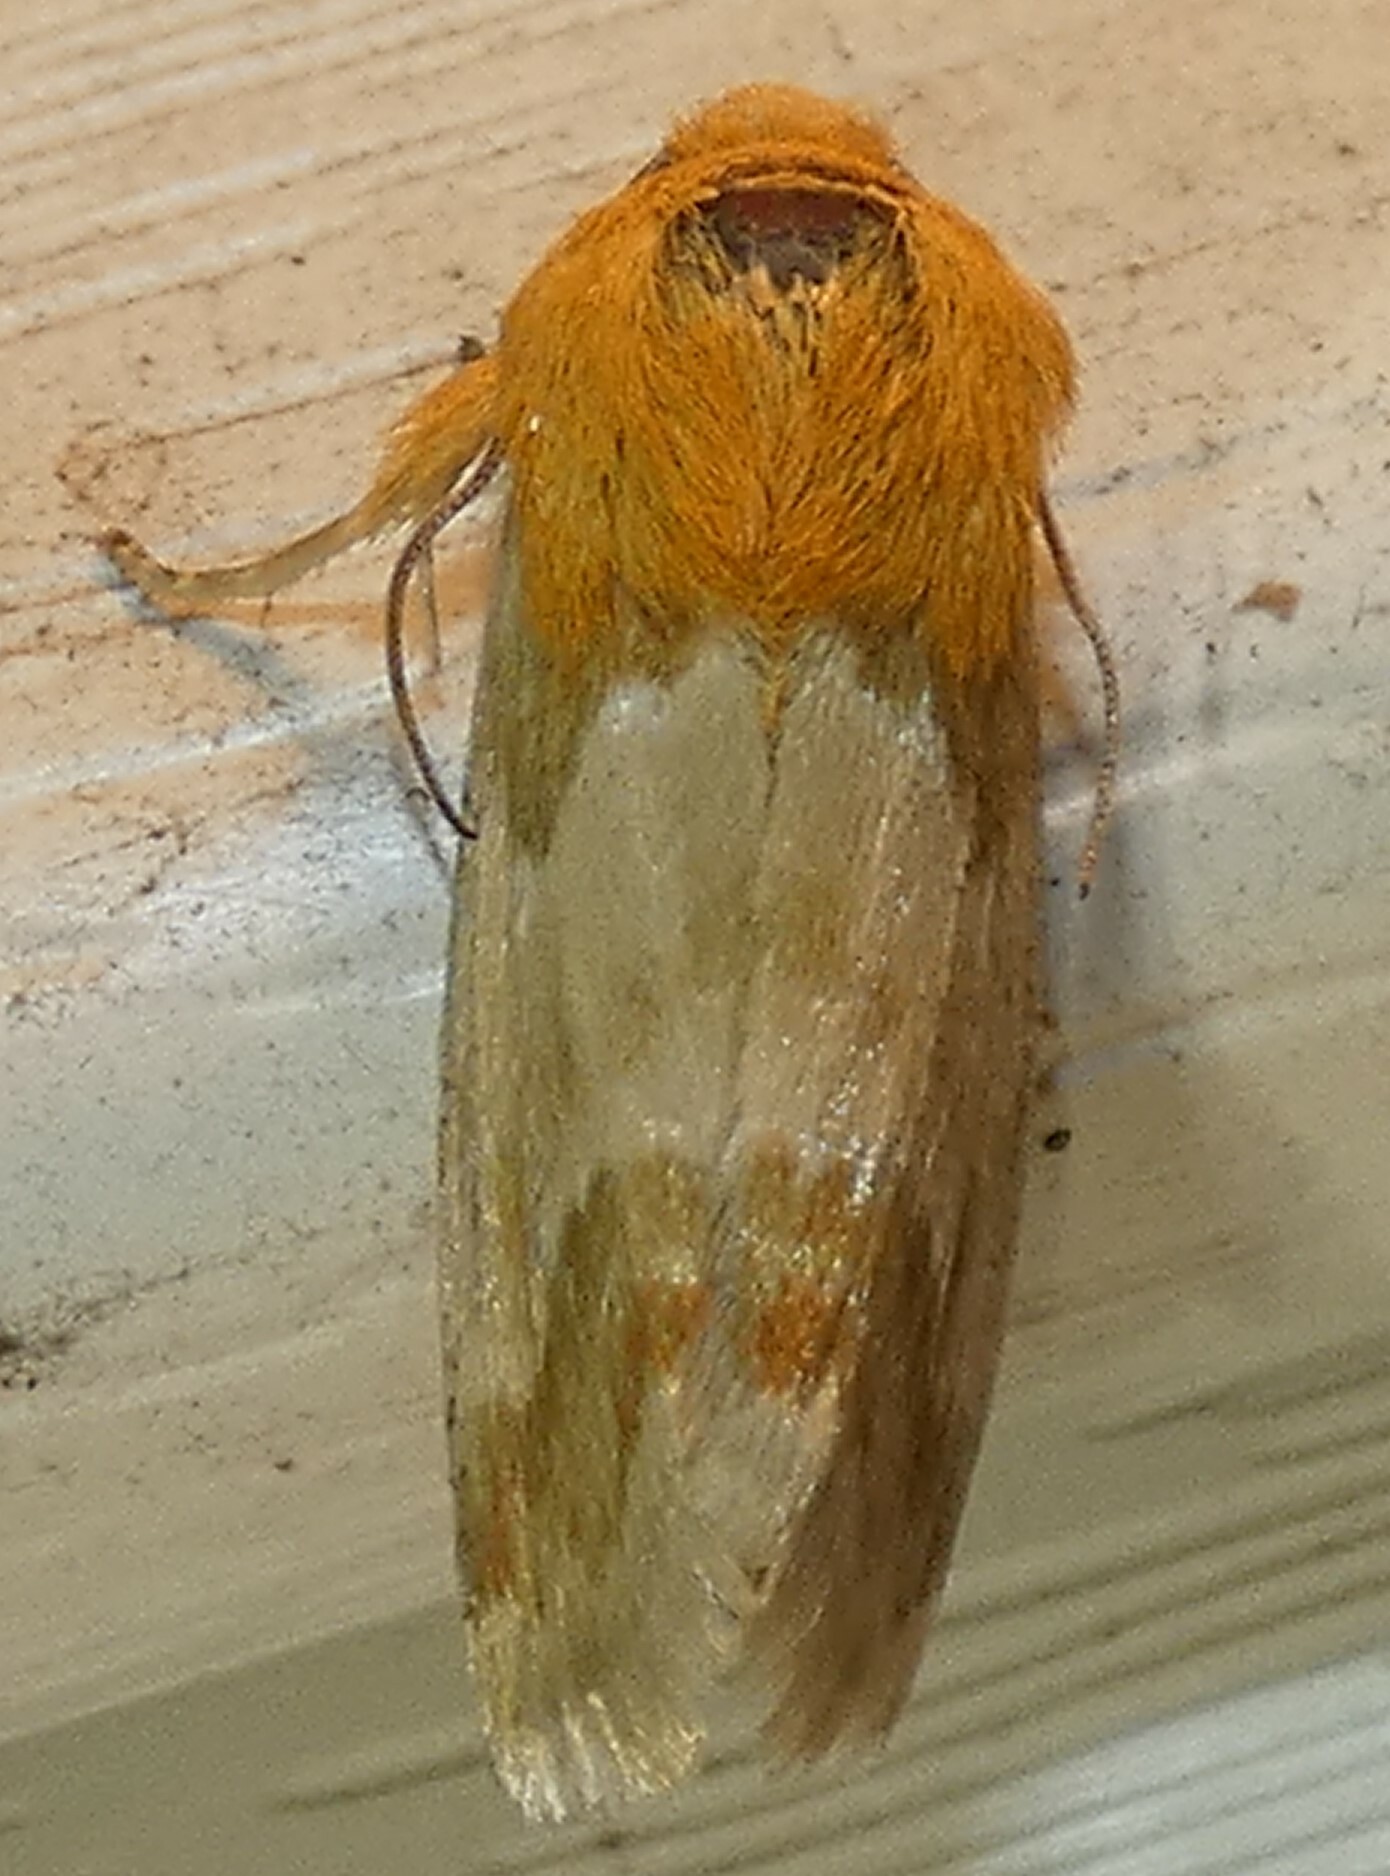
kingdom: Animalia
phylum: Arthropoda
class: Insecta
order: Lepidoptera
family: Noctuidae
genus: Schinia
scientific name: Schinia siren
